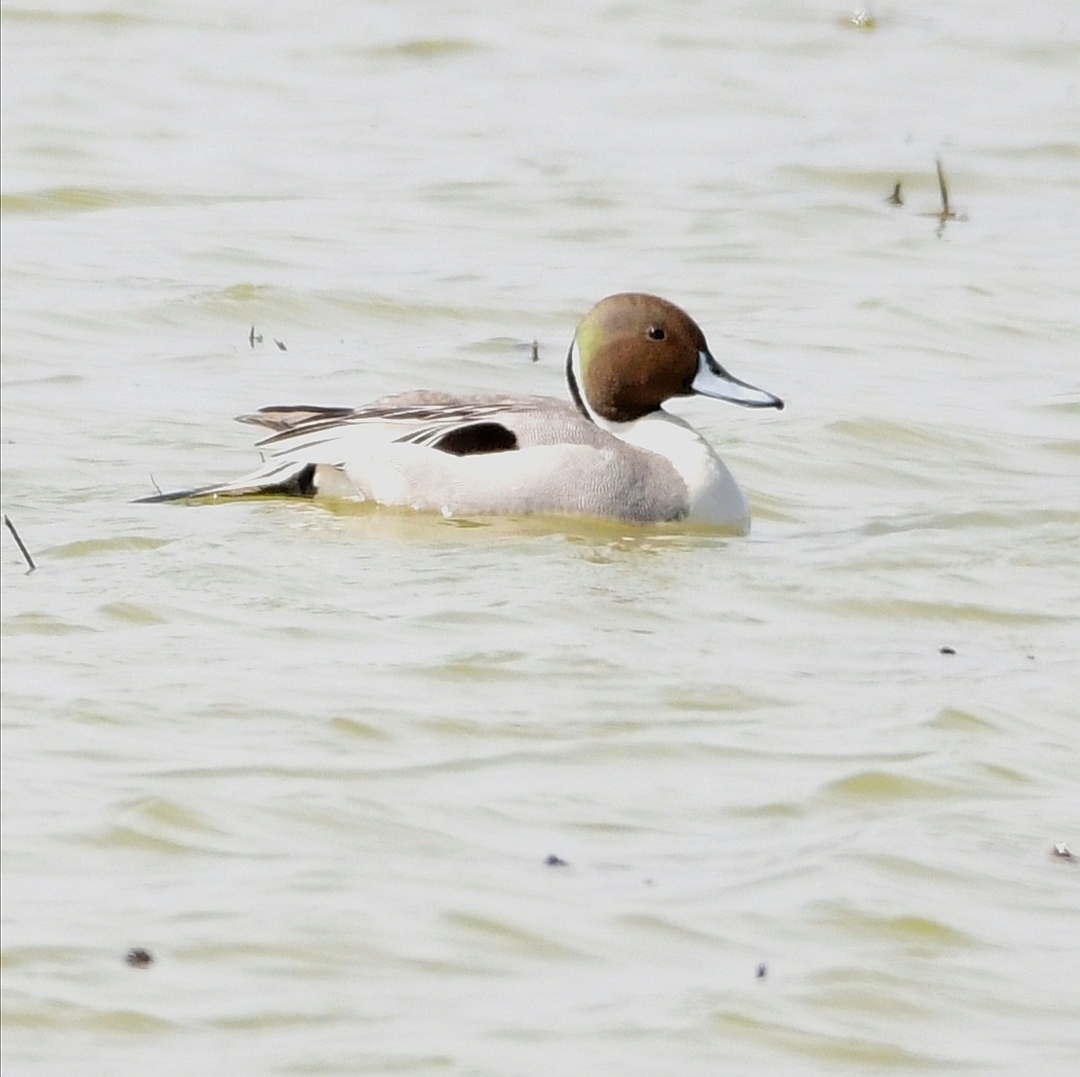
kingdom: Animalia
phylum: Chordata
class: Aves
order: Anseriformes
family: Anatidae
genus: Anas
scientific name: Anas acuta
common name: Northern pintail
